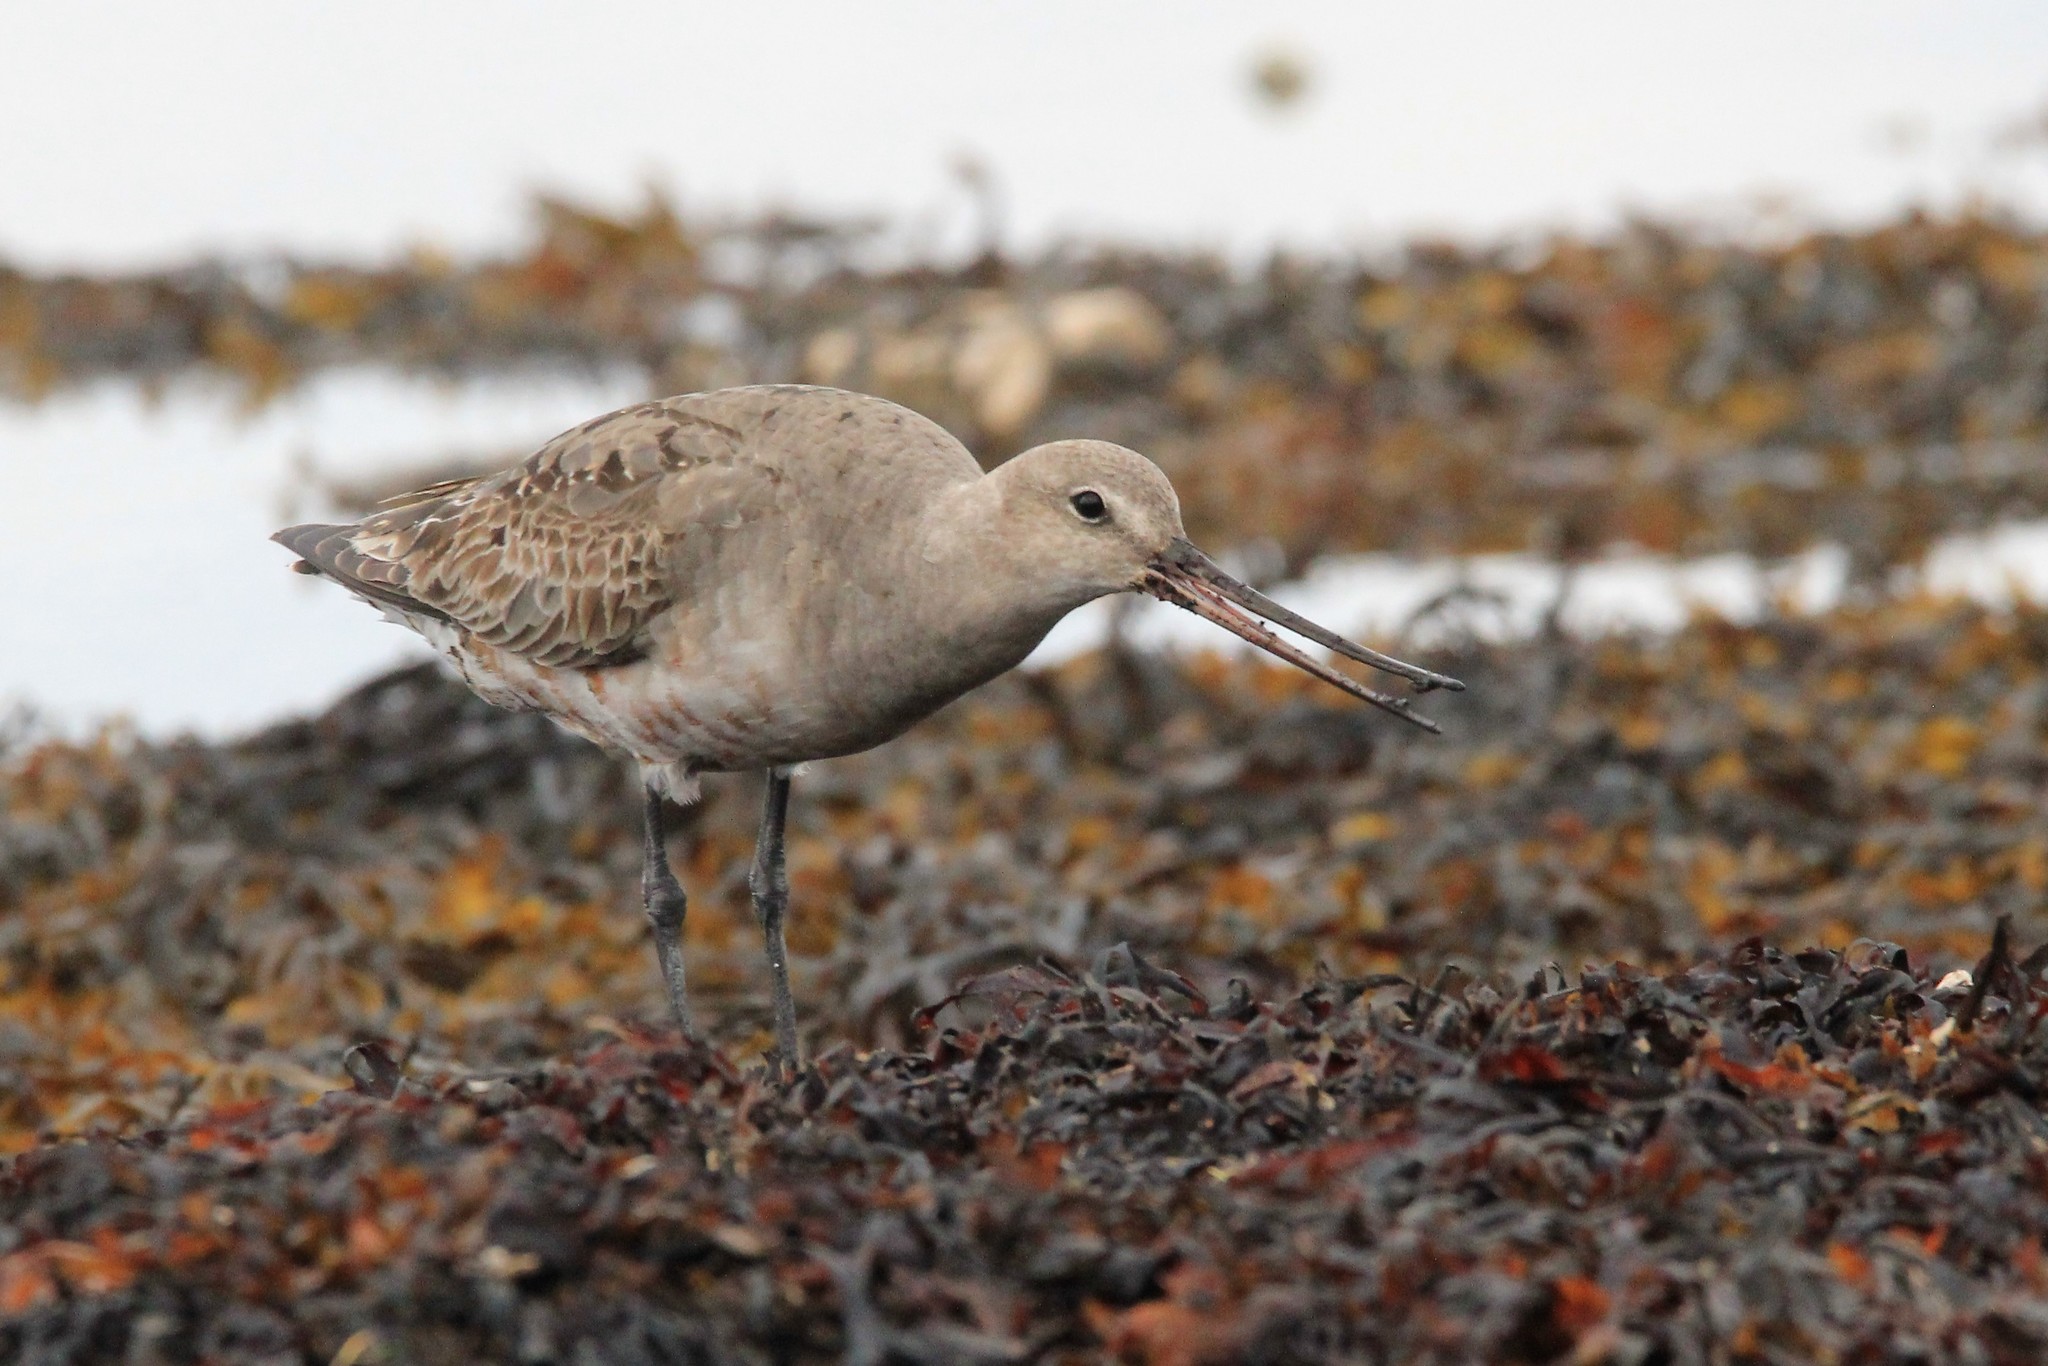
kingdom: Animalia
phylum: Chordata
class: Aves
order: Charadriiformes
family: Scolopacidae
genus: Limosa
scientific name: Limosa haemastica
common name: Hudsonian godwit
